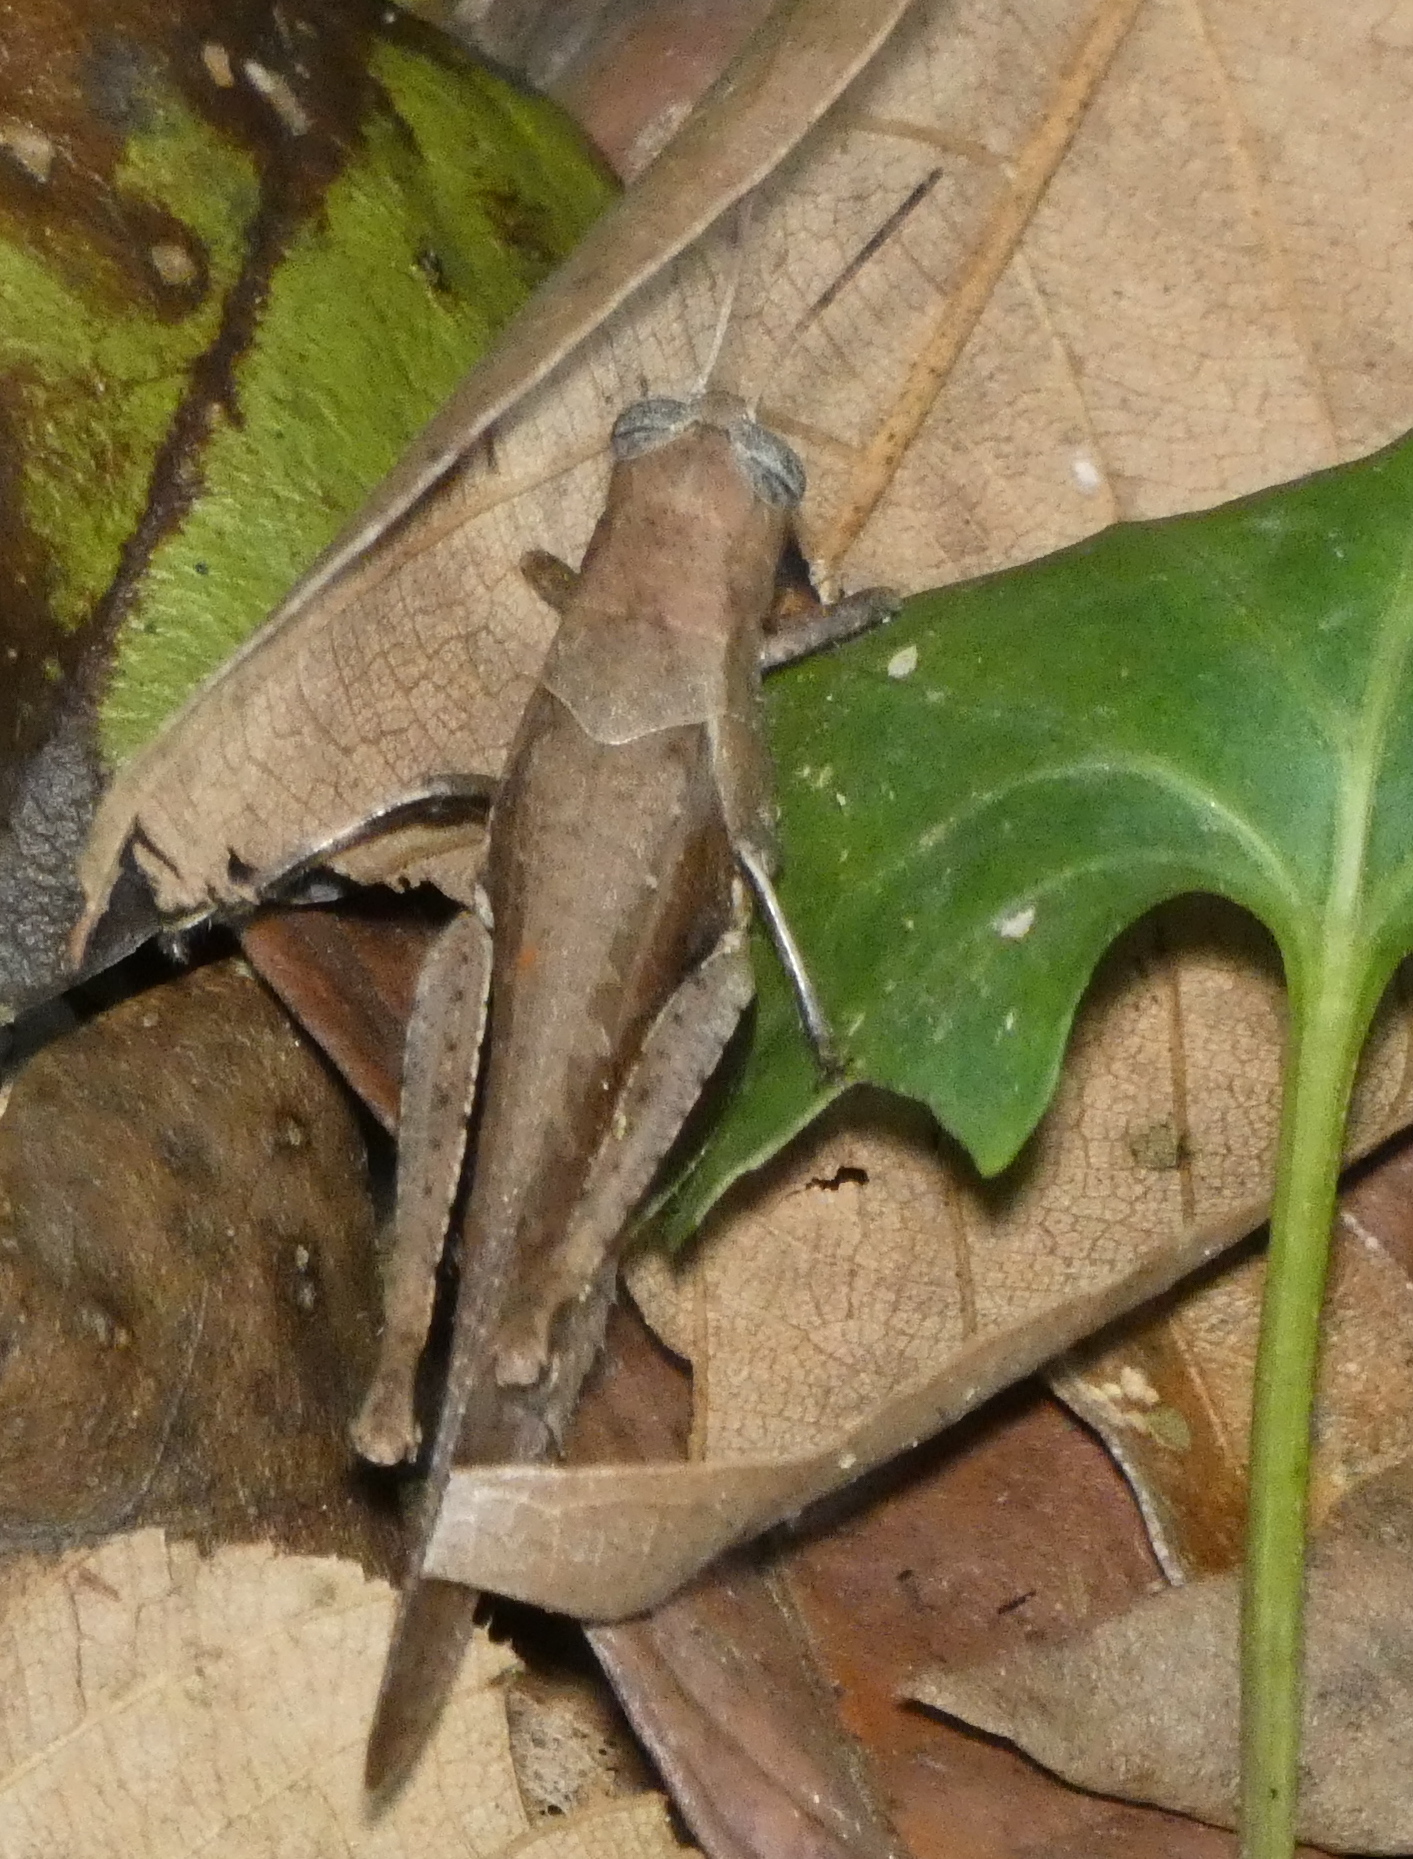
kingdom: Animalia
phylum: Arthropoda
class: Insecta
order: Orthoptera
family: Acrididae
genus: Abracris
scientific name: Abracris flavolineata
